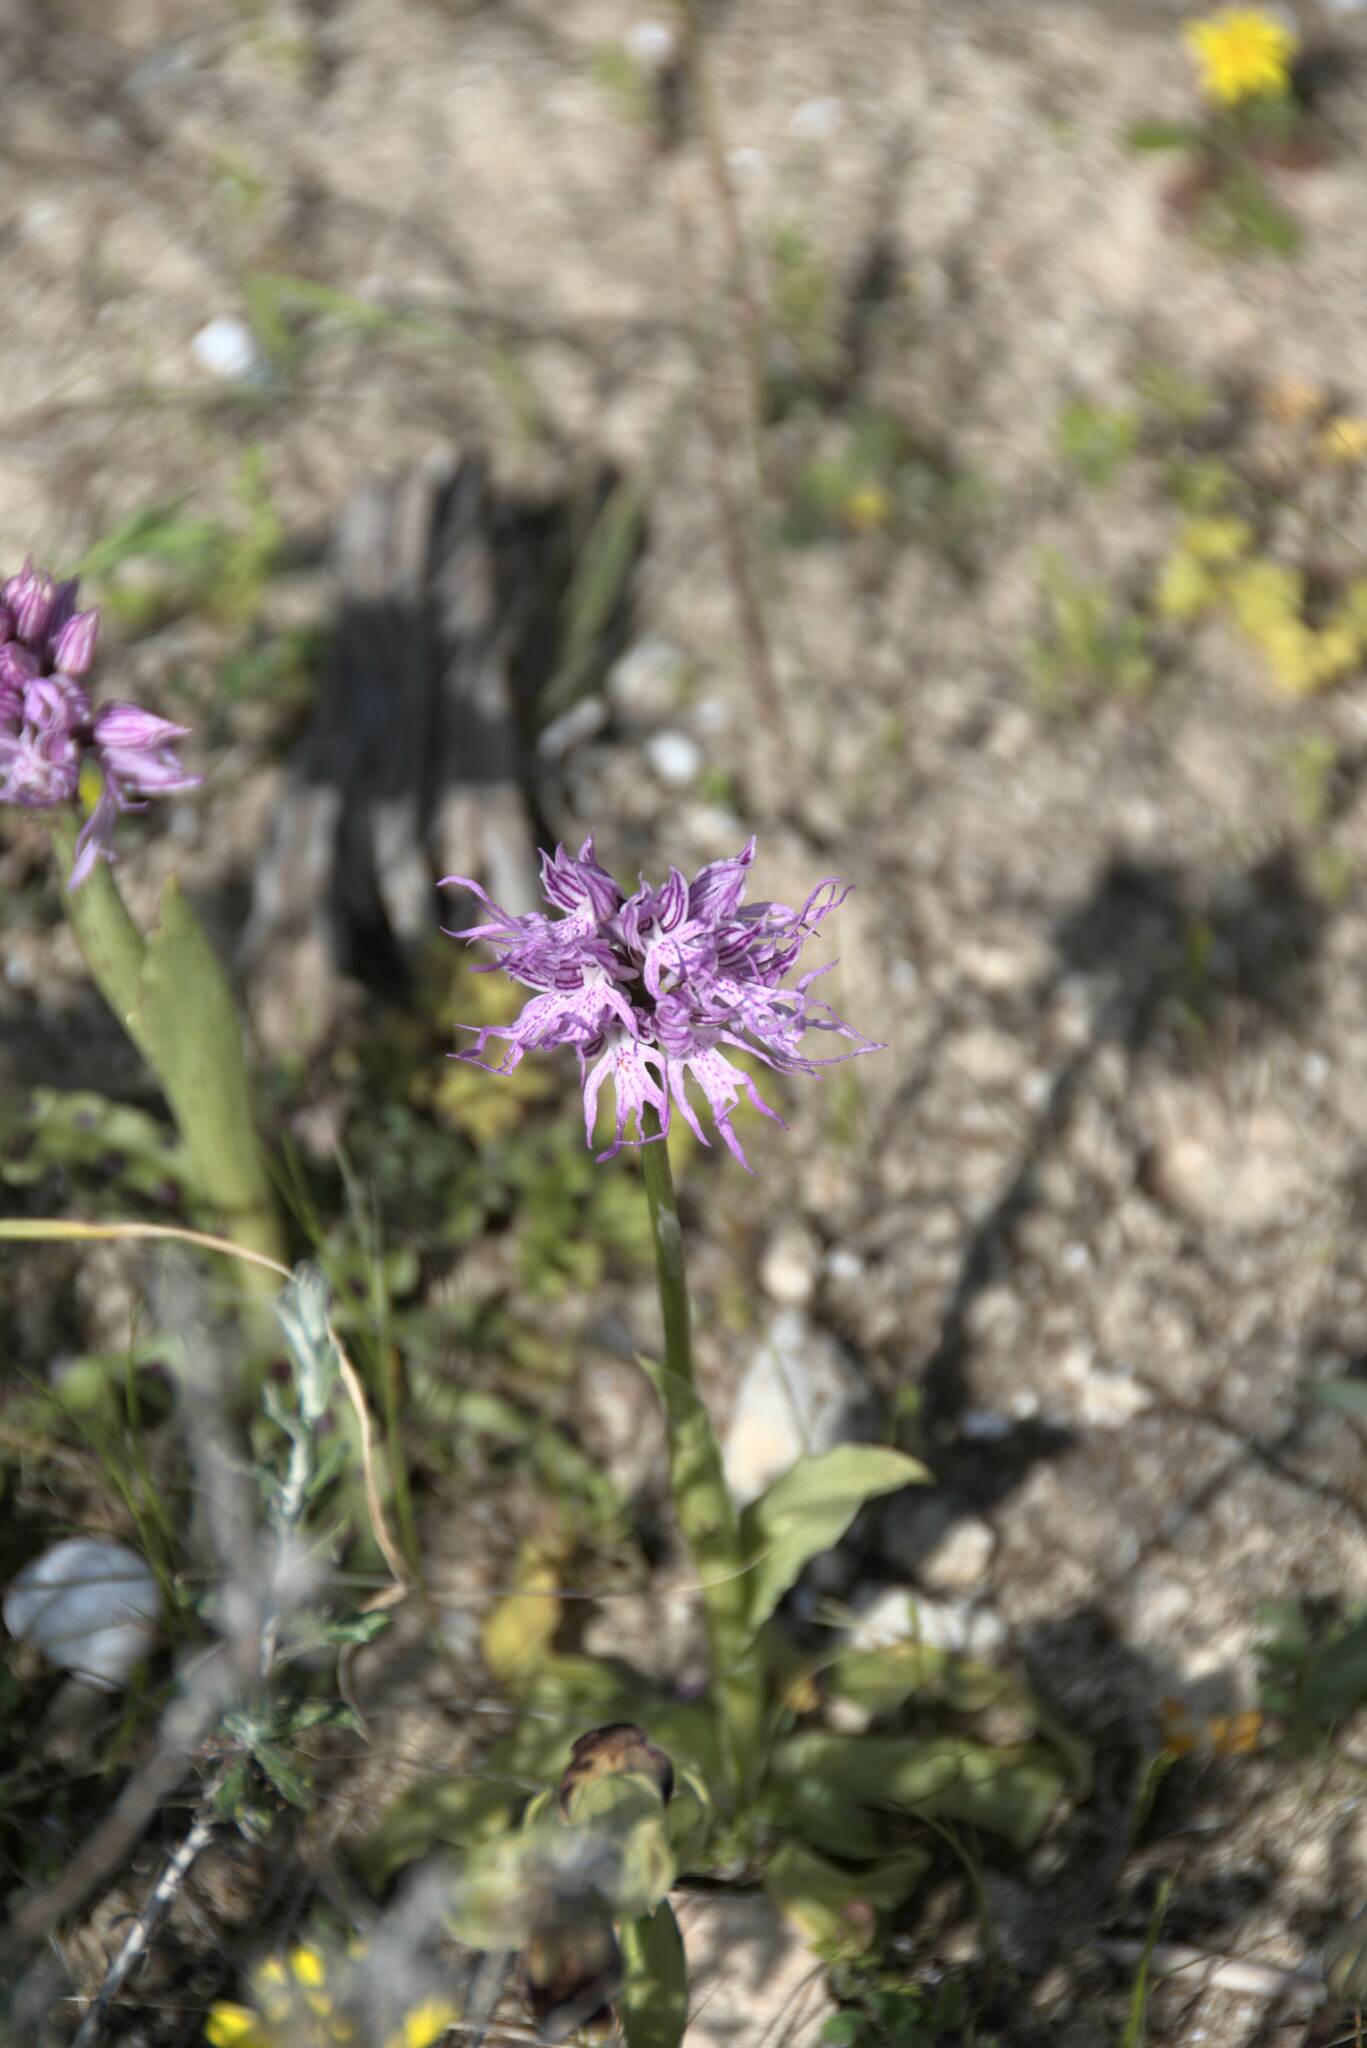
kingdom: Plantae
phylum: Tracheophyta
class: Liliopsida
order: Asparagales
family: Orchidaceae
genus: Orchis
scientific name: Orchis italica
